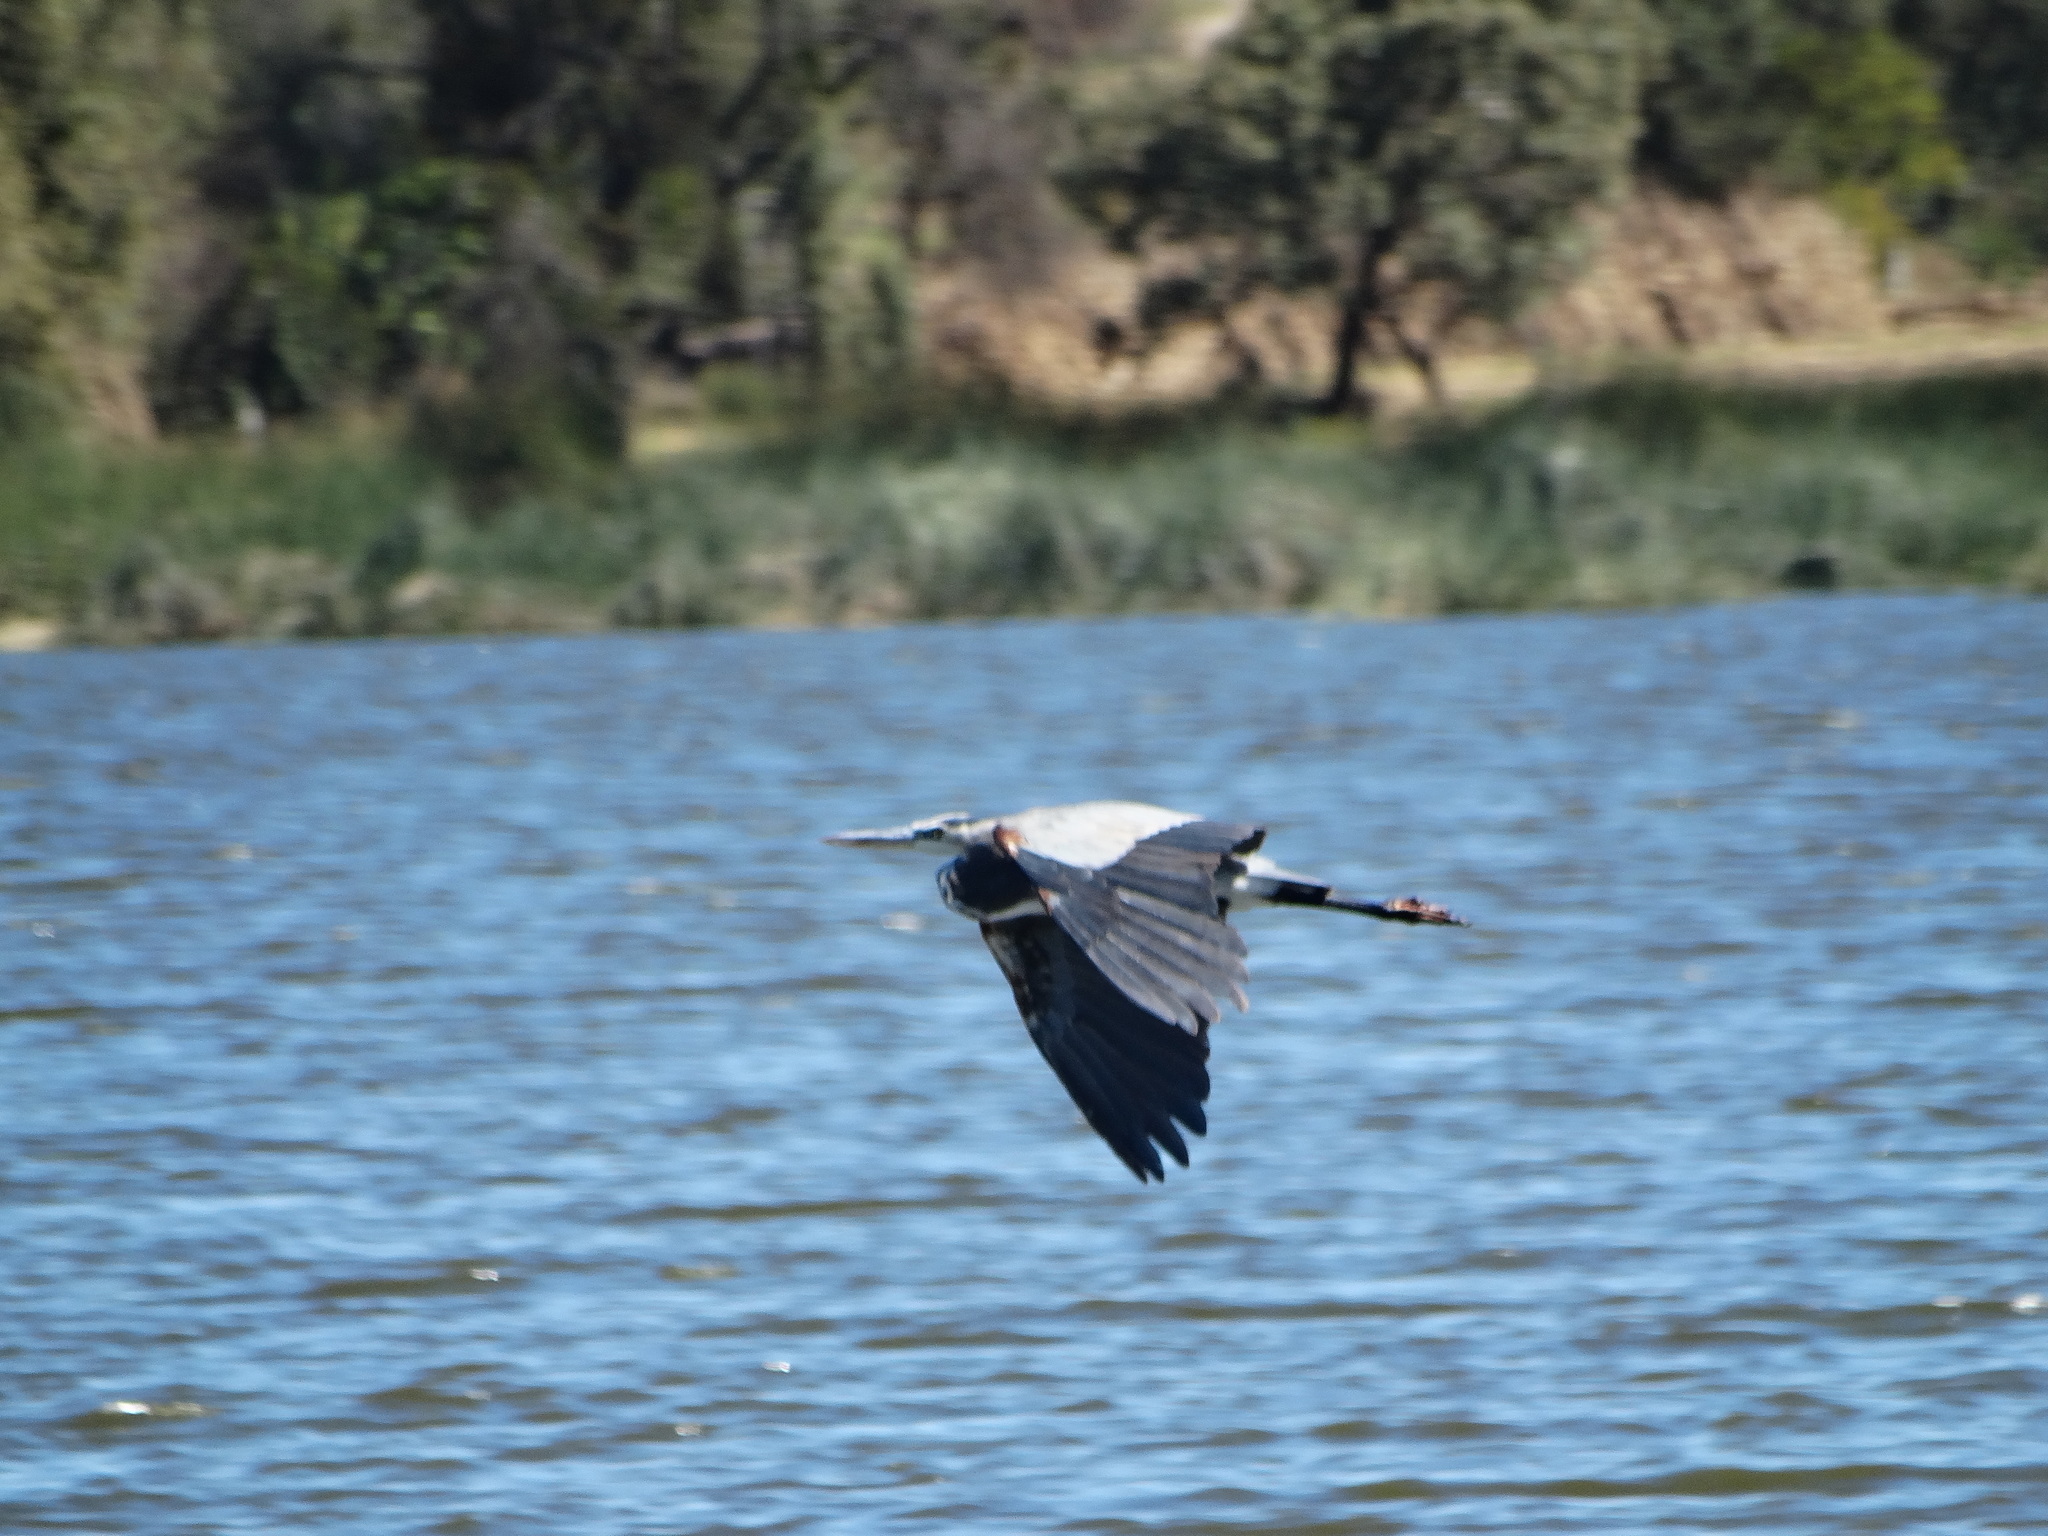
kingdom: Animalia
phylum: Chordata
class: Aves
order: Pelecaniformes
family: Ardeidae
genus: Ardea
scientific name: Ardea herodias
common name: Great blue heron
